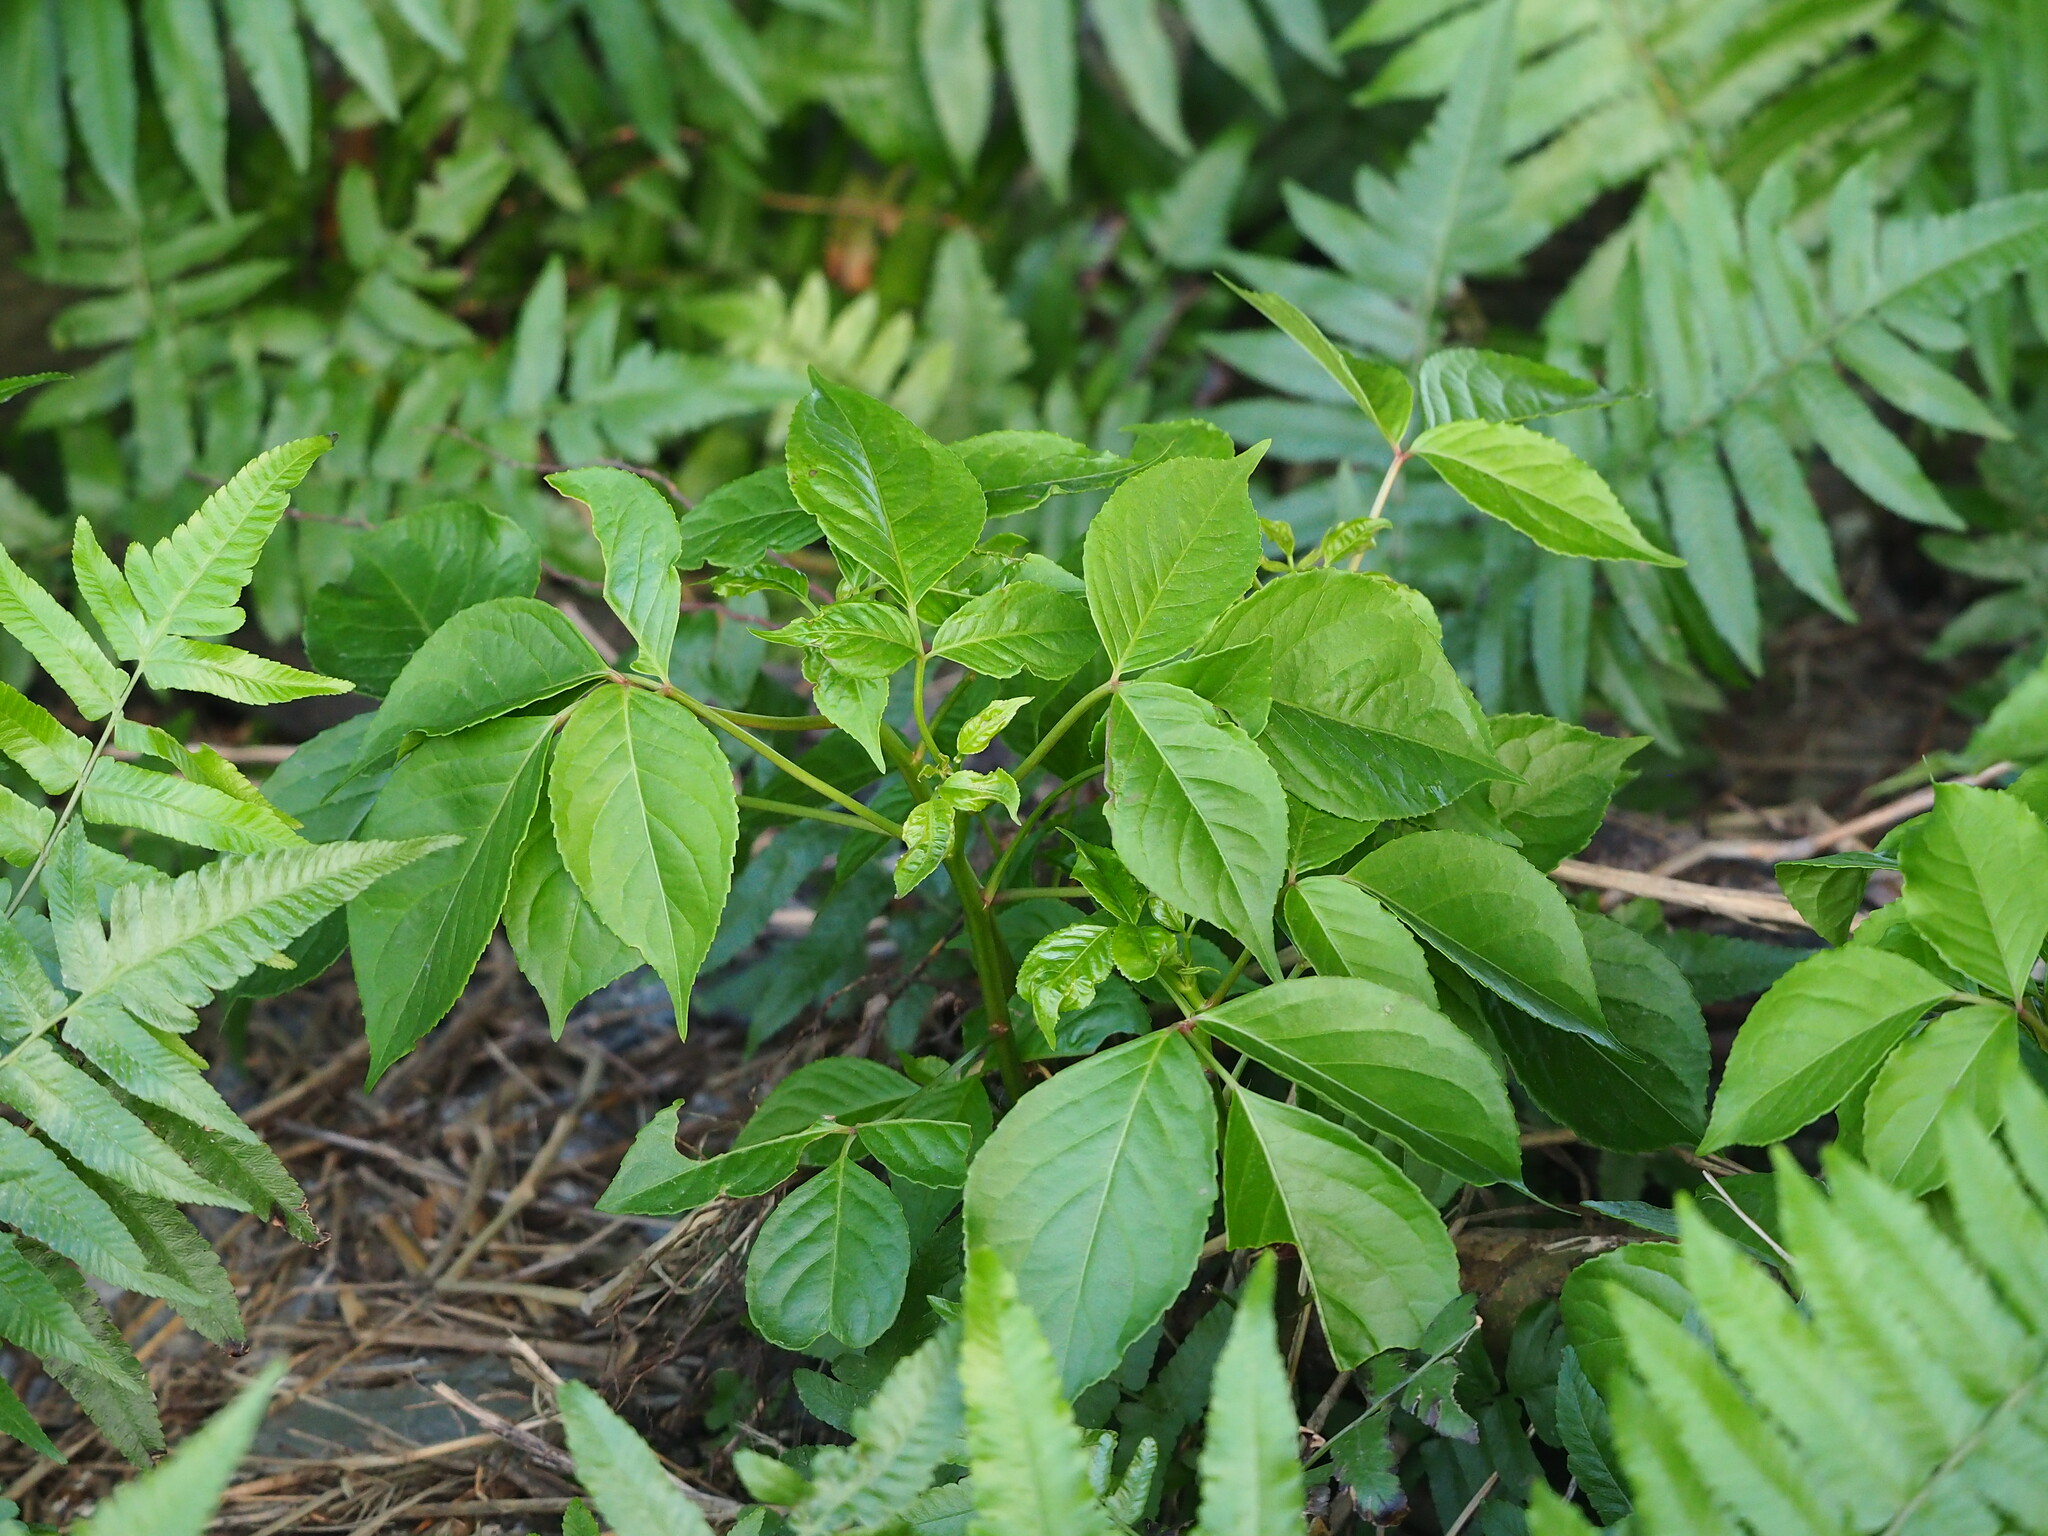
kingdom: Plantae
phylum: Tracheophyta
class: Magnoliopsida
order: Malpighiales
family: Phyllanthaceae
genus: Bischofia
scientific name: Bischofia javanica
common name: Javanese bishopwood
